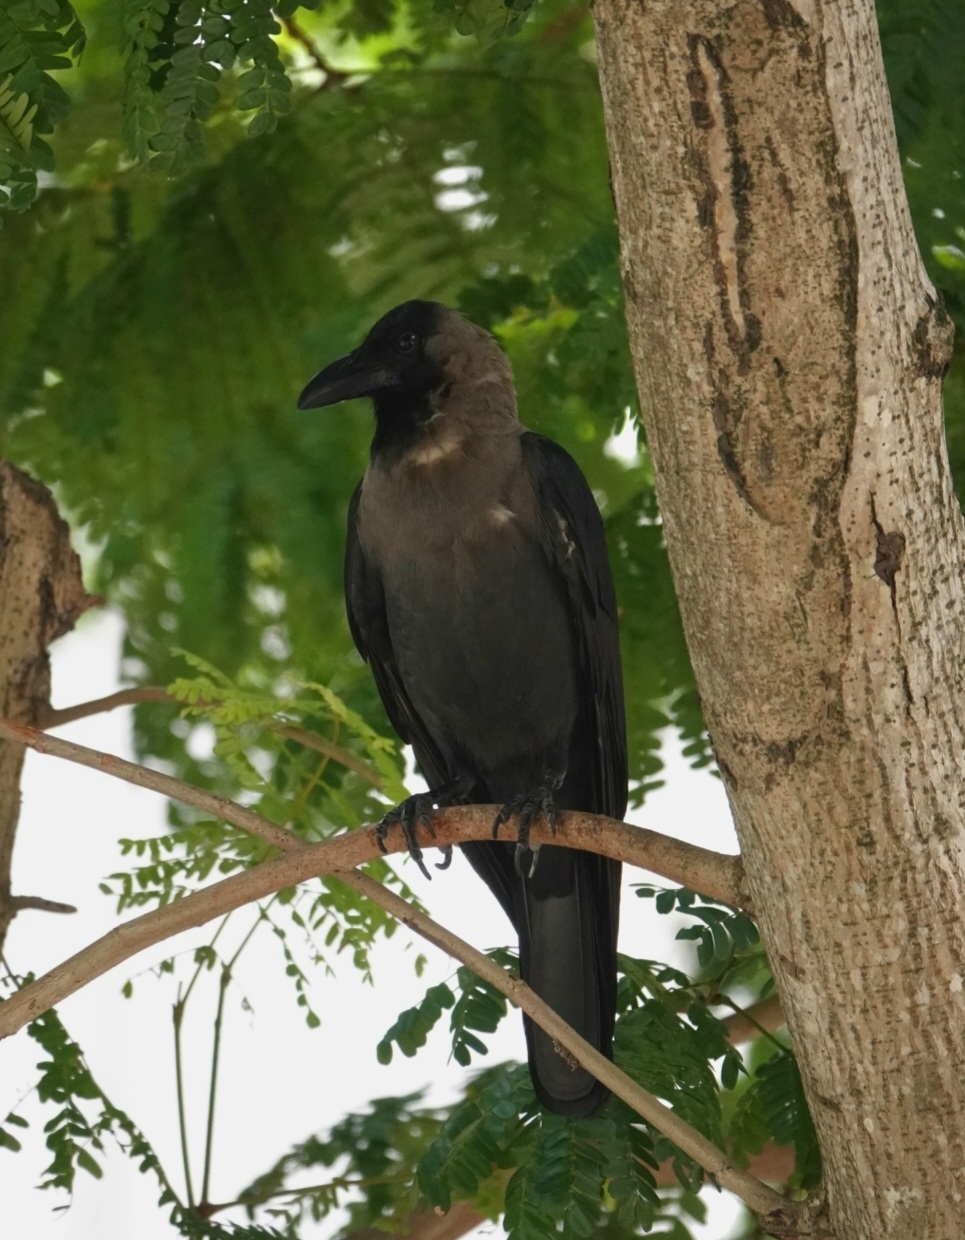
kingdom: Animalia
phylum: Chordata
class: Aves
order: Passeriformes
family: Corvidae
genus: Corvus
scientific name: Corvus splendens
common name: House crow
